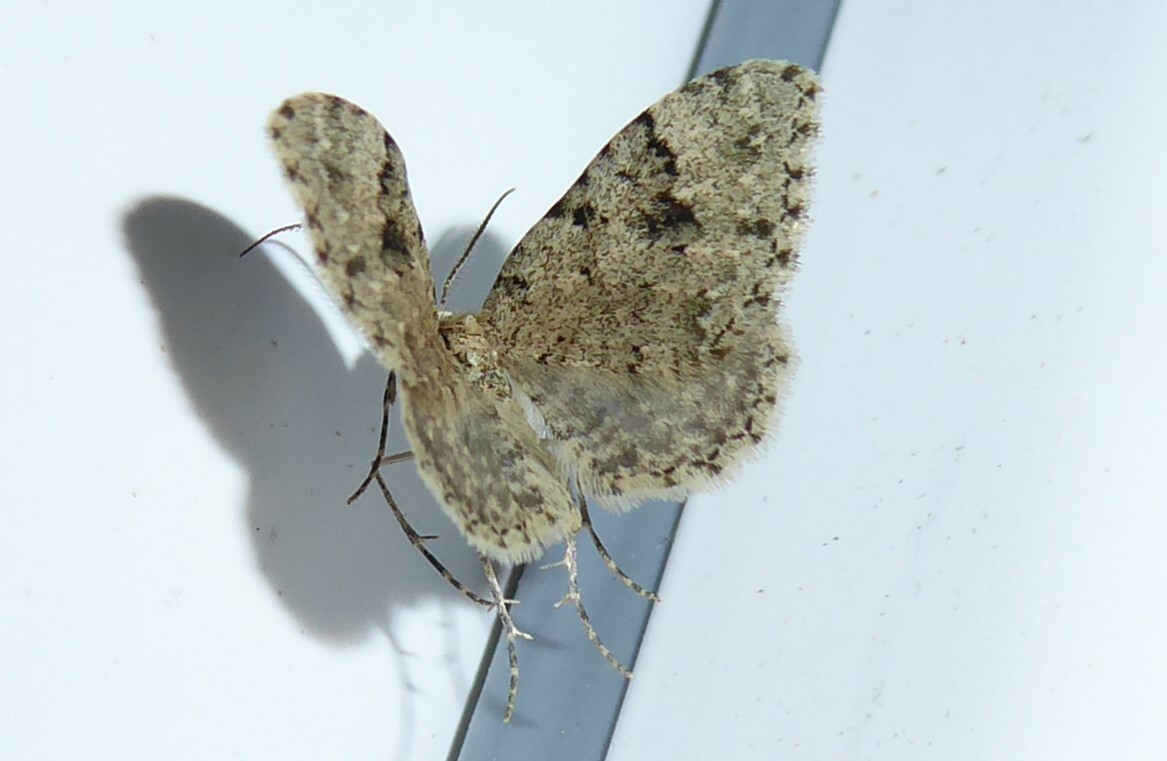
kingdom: Animalia
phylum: Arthropoda
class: Insecta
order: Lepidoptera
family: Geometridae
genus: Helastia
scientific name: Helastia cinerearia
